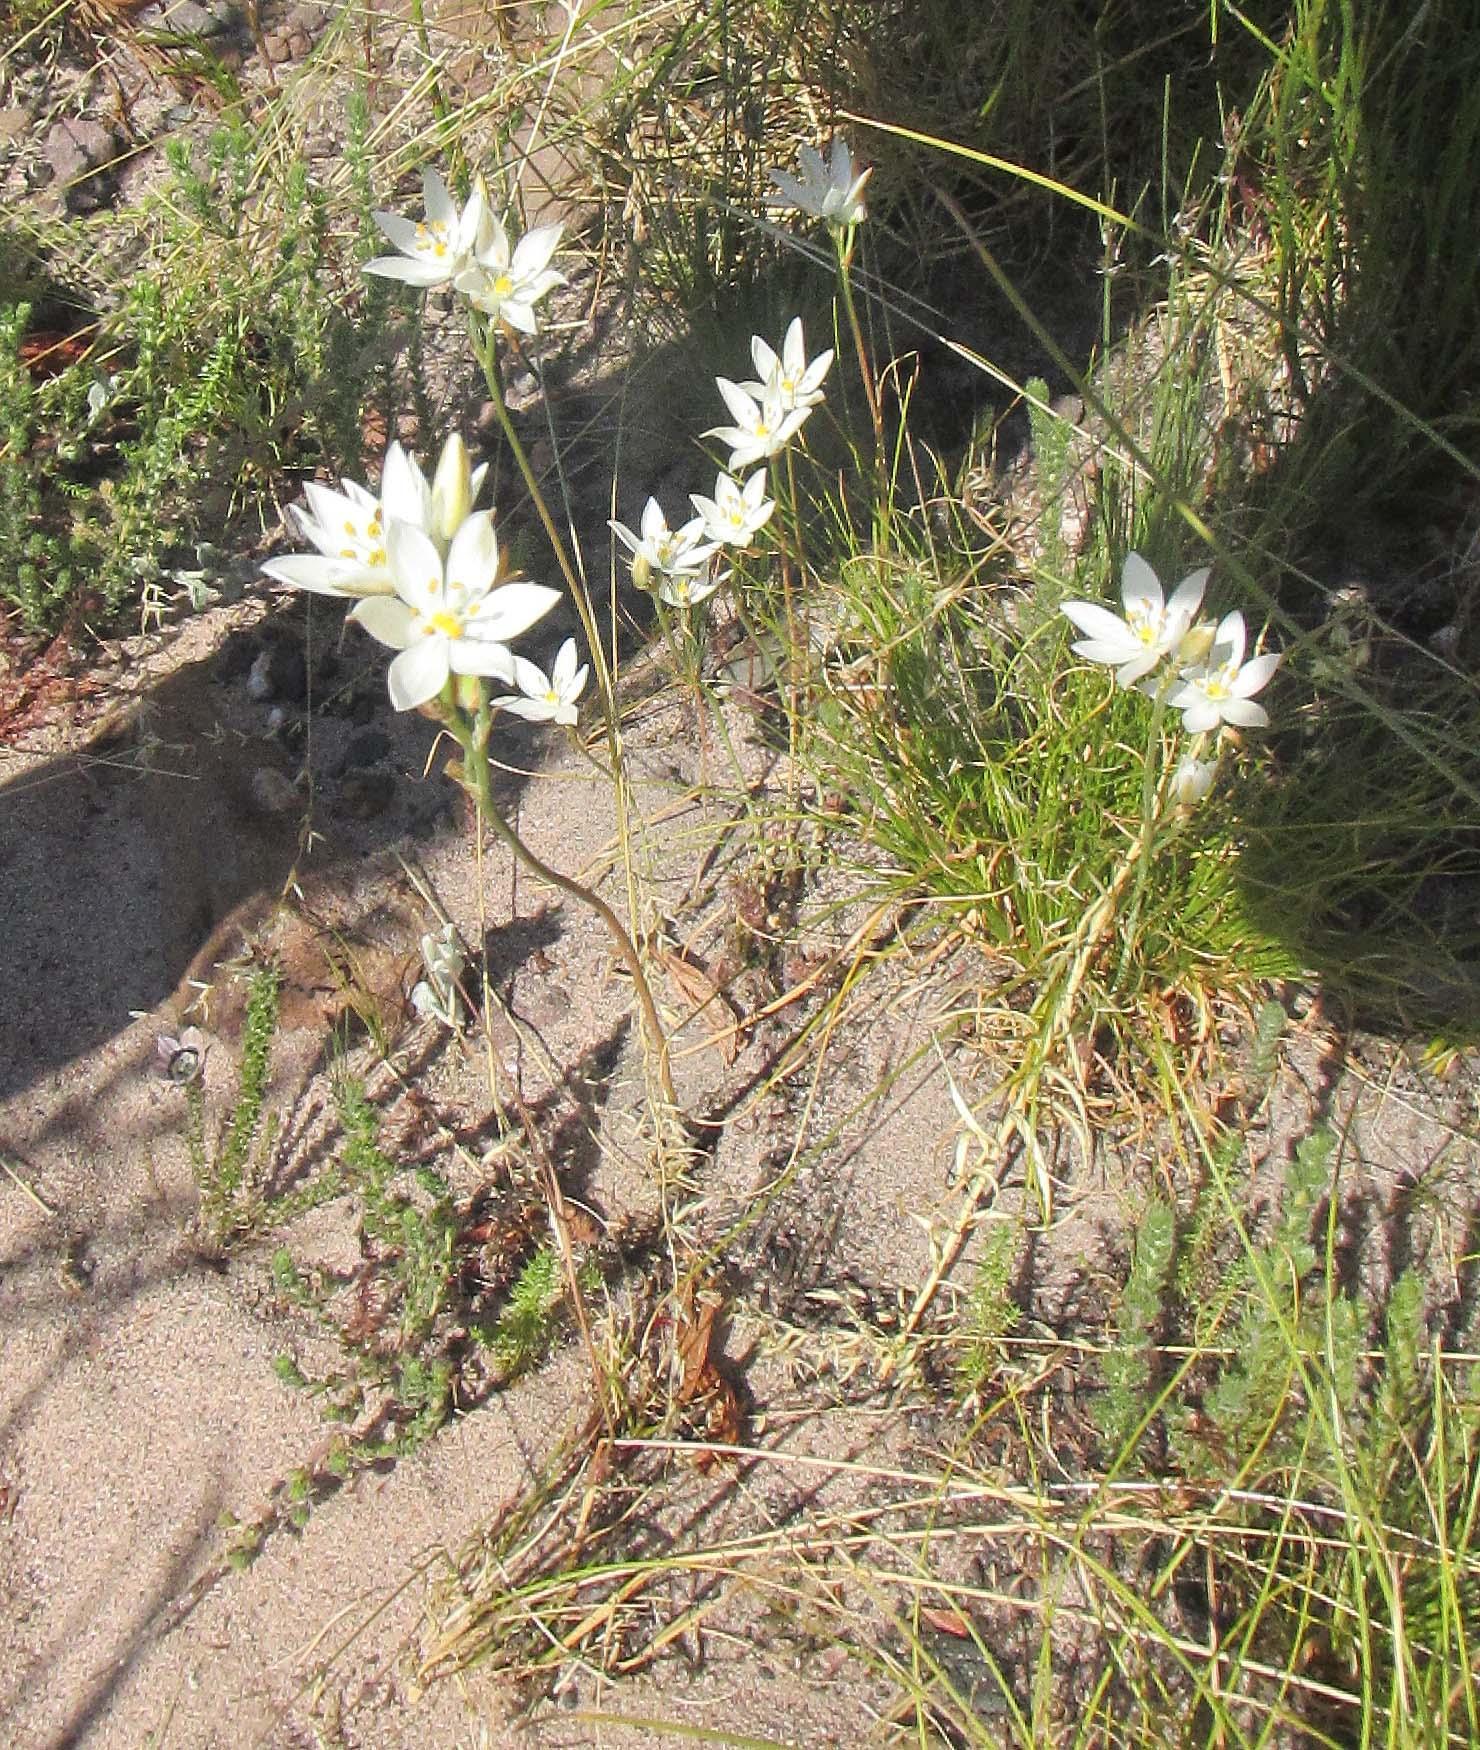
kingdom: Plantae
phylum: Tracheophyta
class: Liliopsida
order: Asparagales
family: Asparagaceae
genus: Ornithogalum
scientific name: Ornithogalum hispidum
